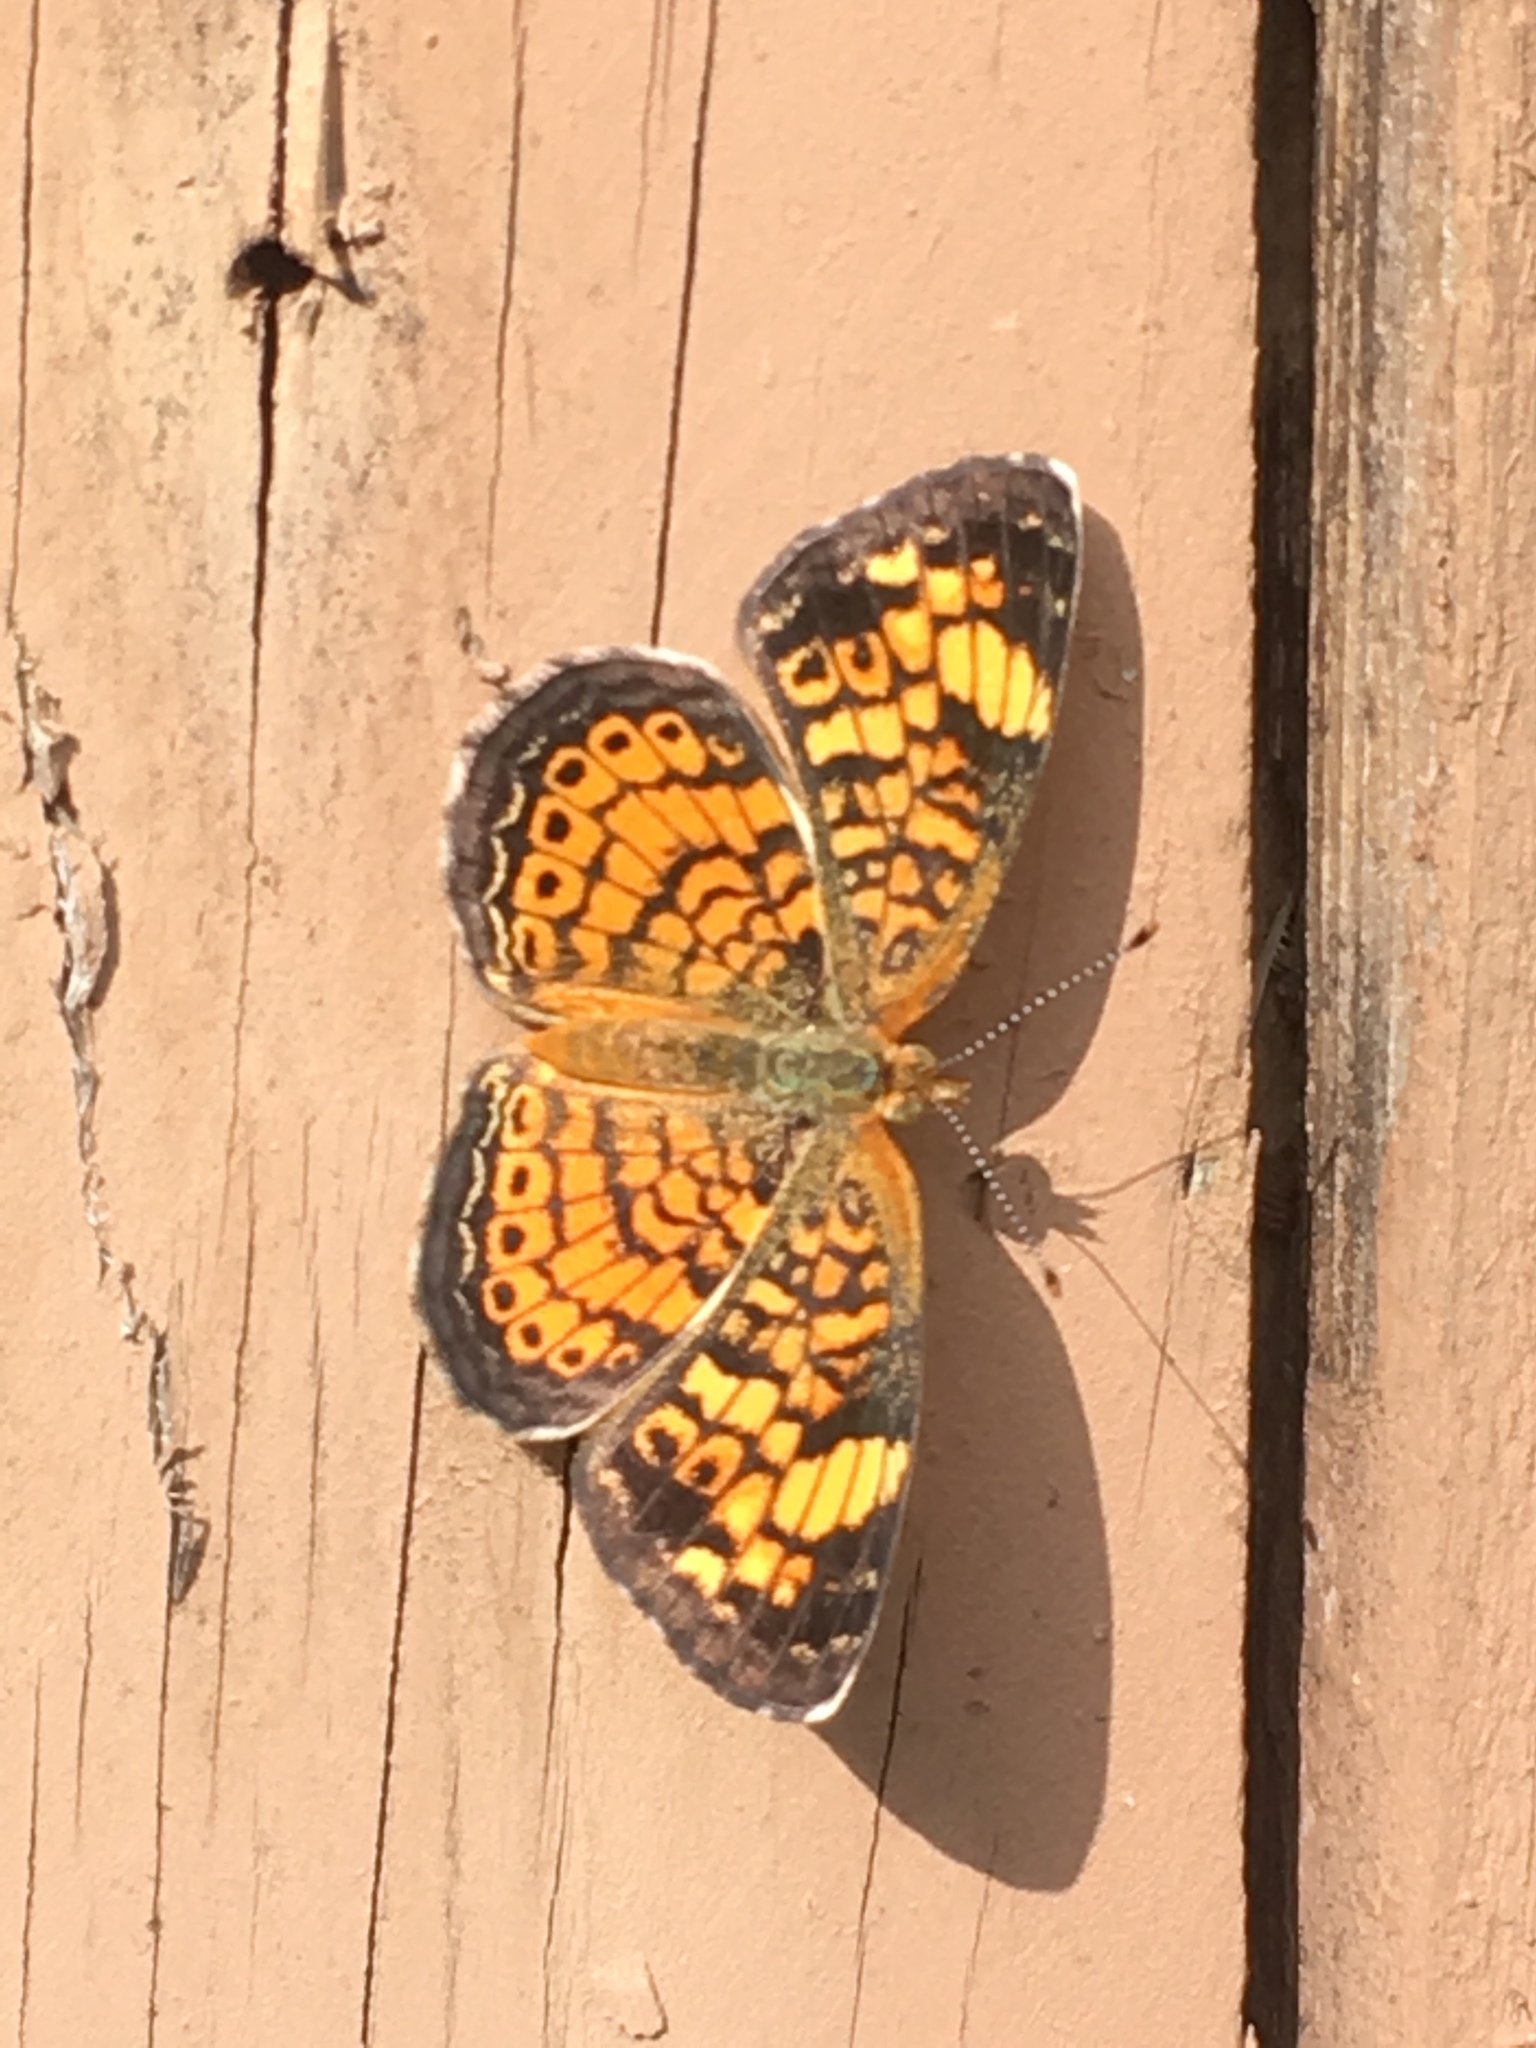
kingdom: Animalia
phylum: Arthropoda
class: Insecta
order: Lepidoptera
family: Nymphalidae
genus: Phyciodes
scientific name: Phyciodes tharos
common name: Pearl crescent
